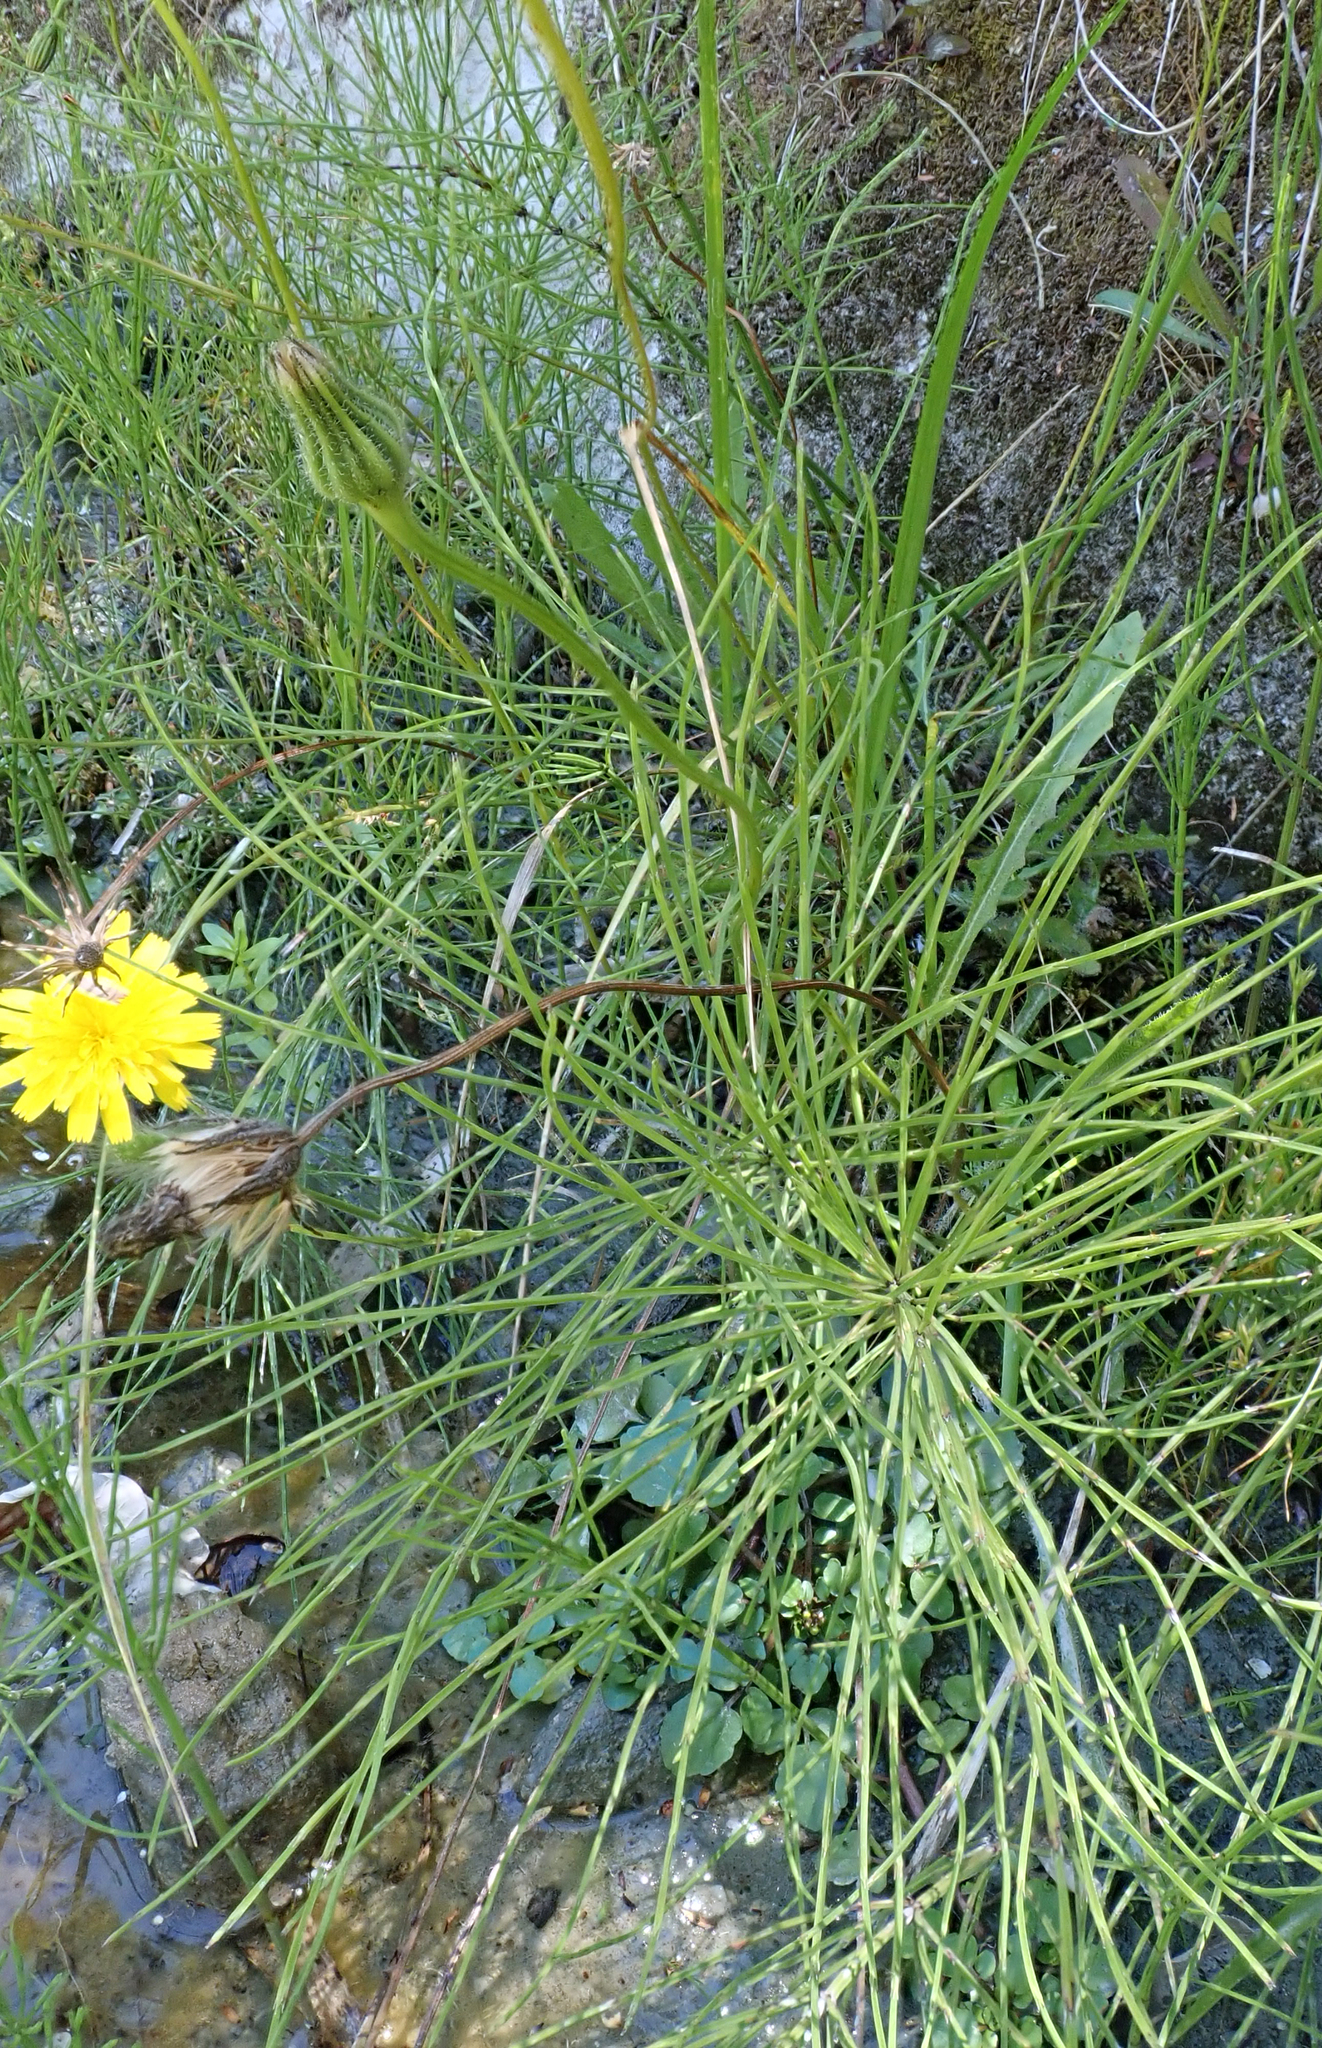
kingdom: Plantae
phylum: Tracheophyta
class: Polypodiopsida
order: Equisetales
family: Equisetaceae
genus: Equisetum
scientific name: Equisetum arvense
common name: Field horsetail
